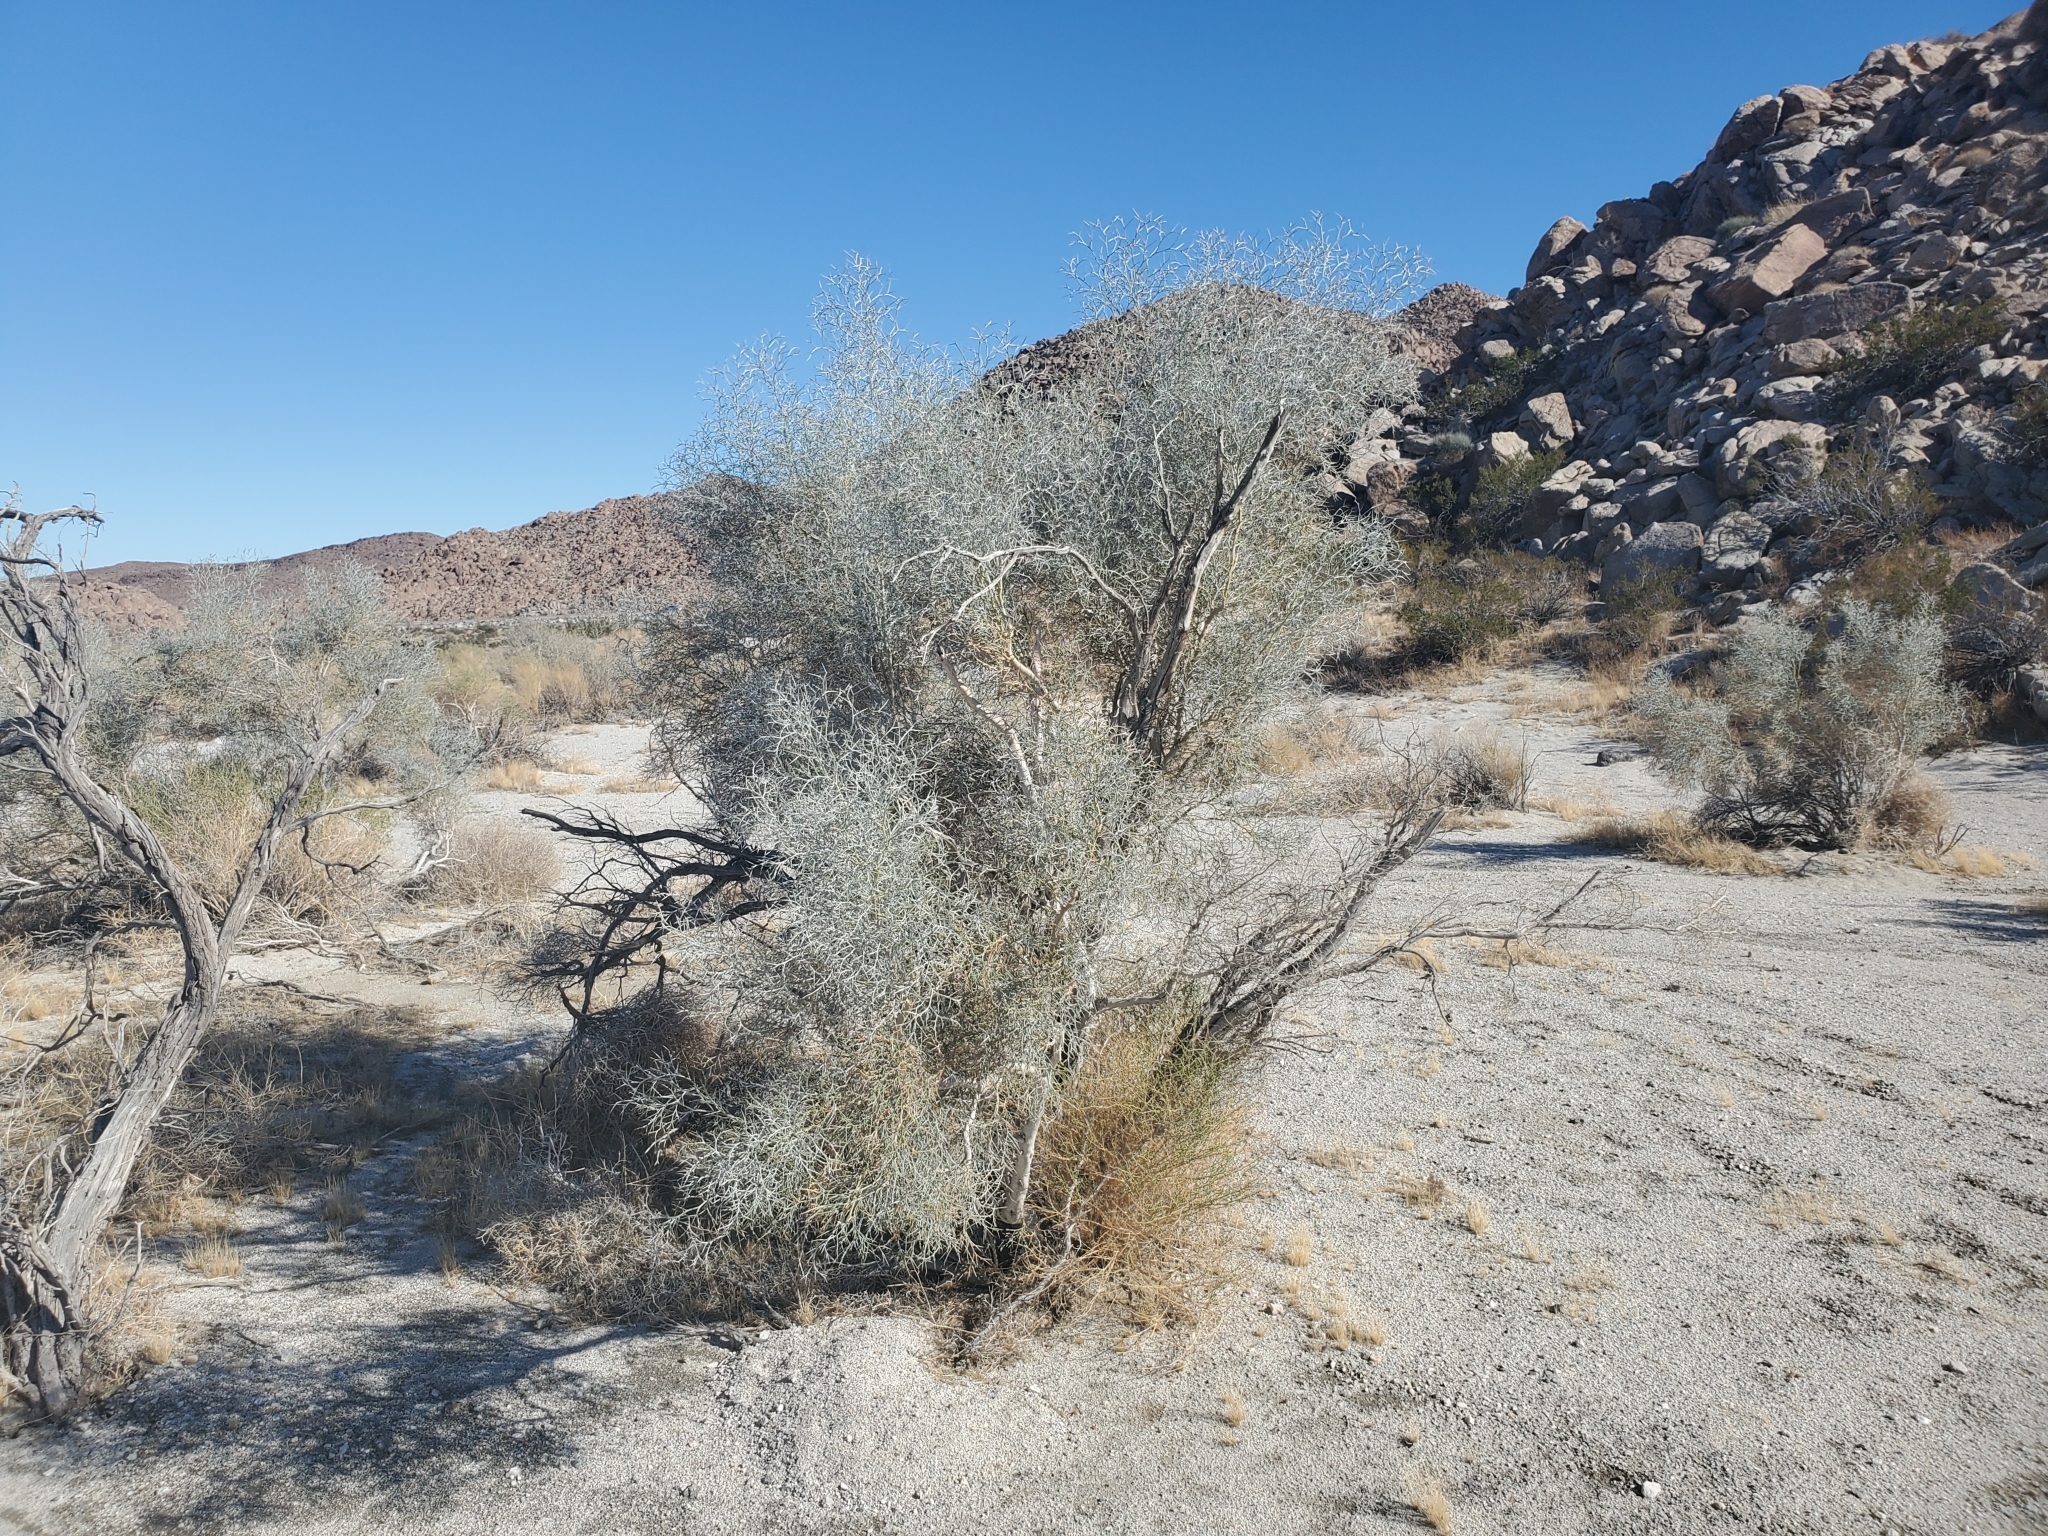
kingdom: Plantae
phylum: Tracheophyta
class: Magnoliopsida
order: Fabales
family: Fabaceae
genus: Psorothamnus
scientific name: Psorothamnus spinosus
